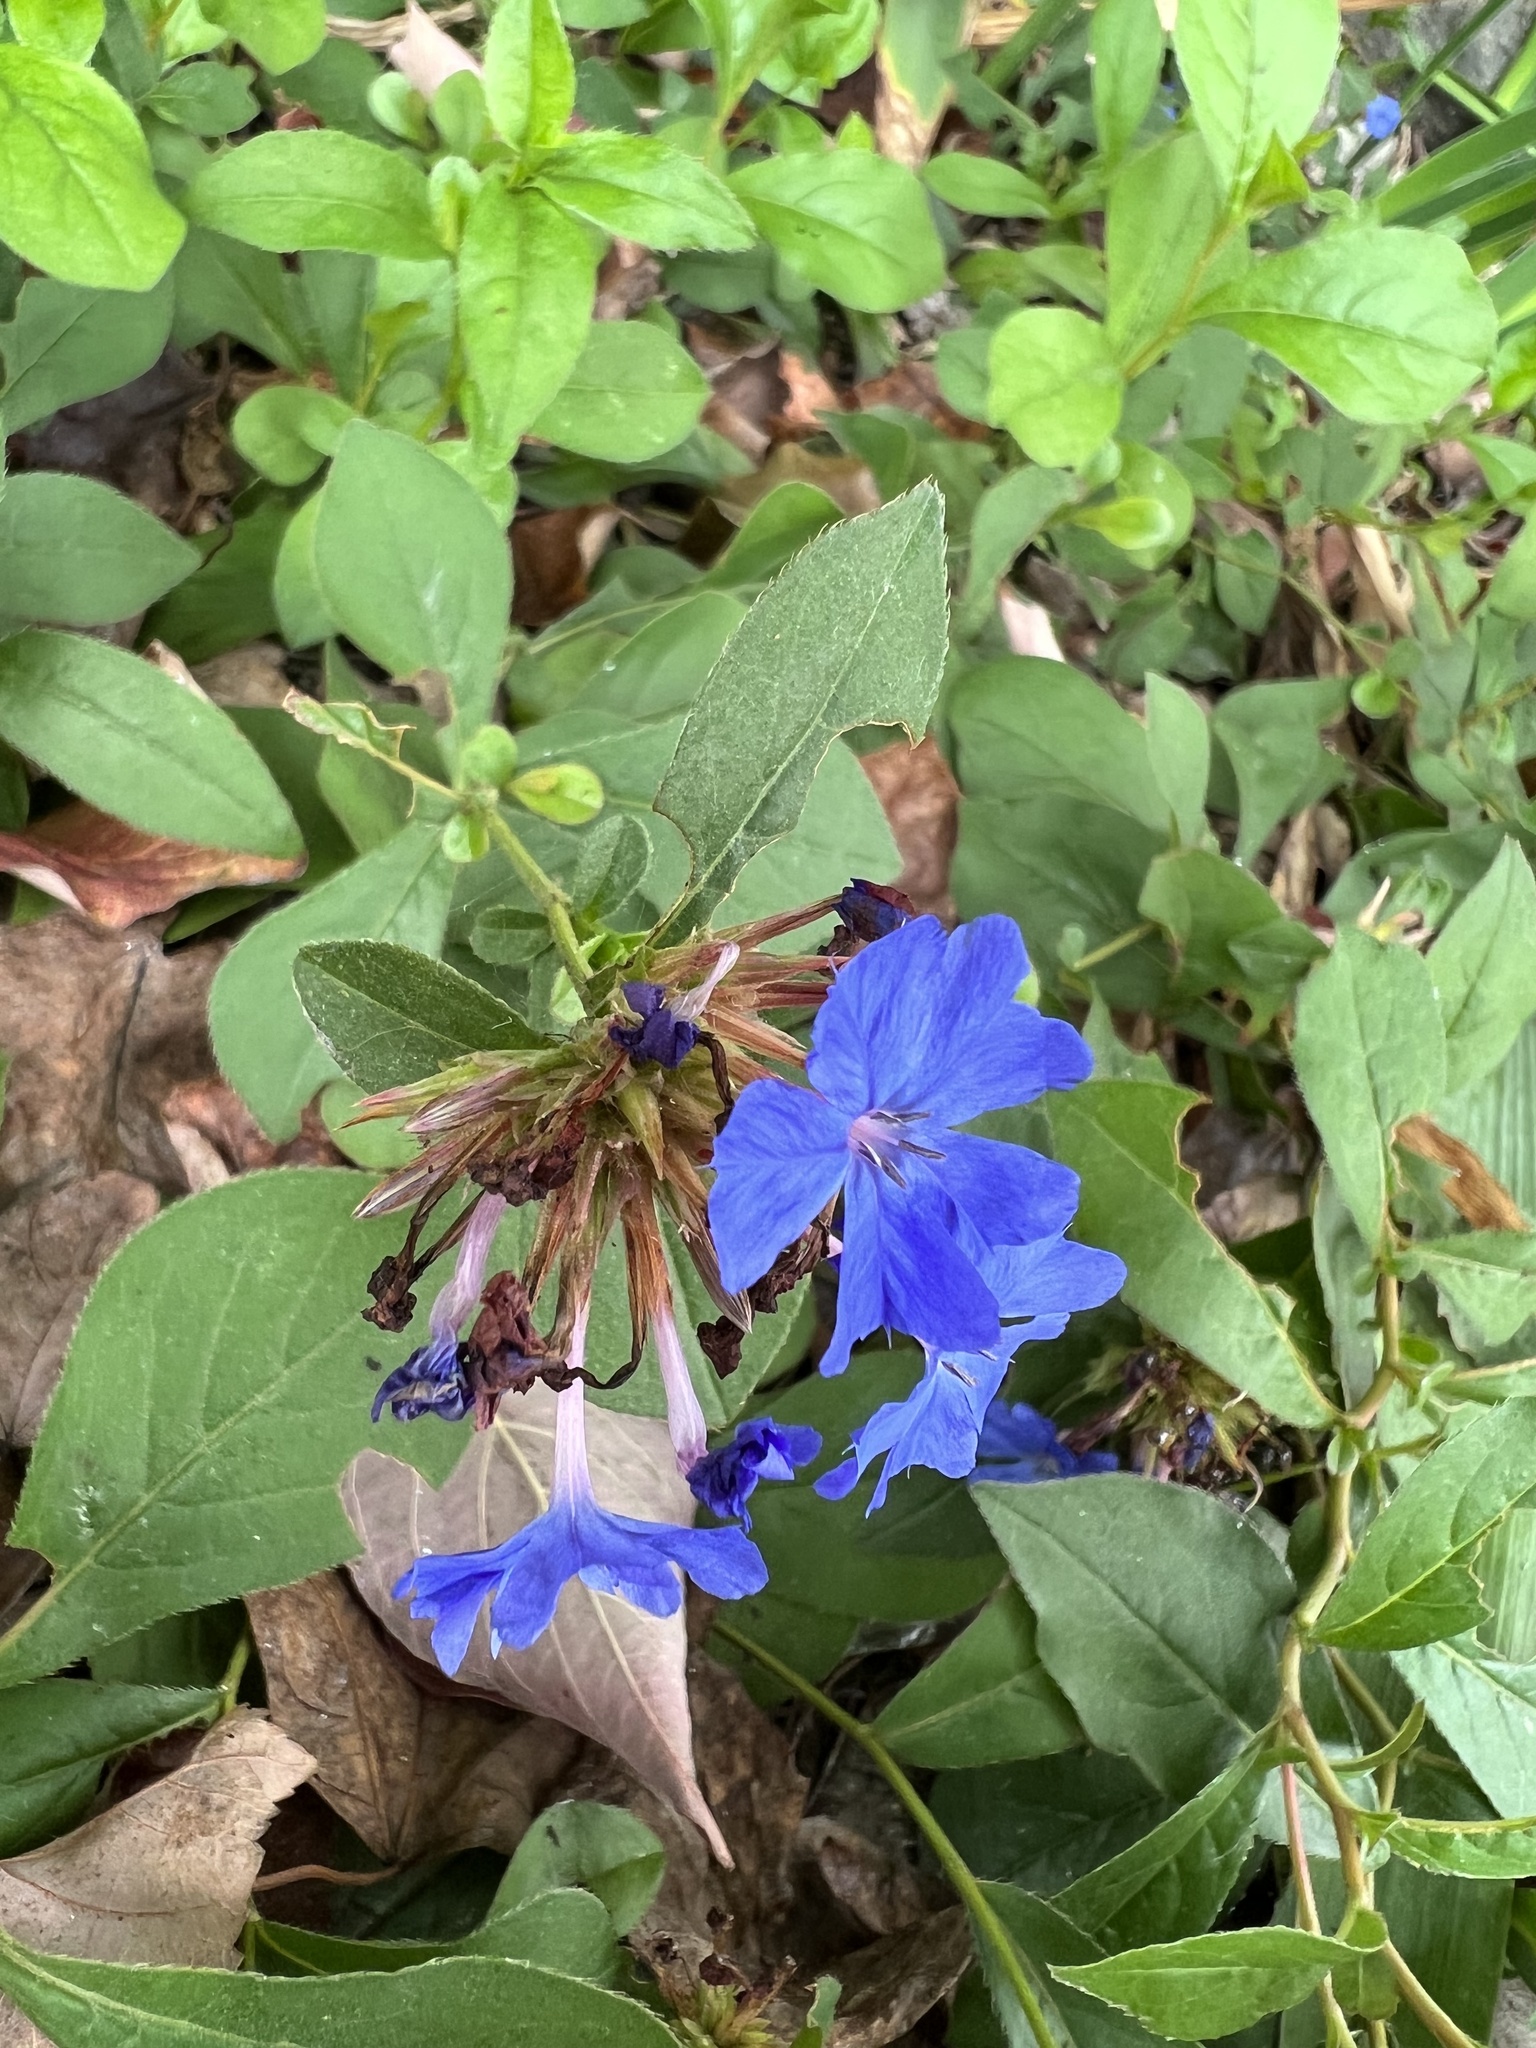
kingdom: Plantae
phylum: Tracheophyta
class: Magnoliopsida
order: Caryophyllales
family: Plumbaginaceae
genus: Ceratostigma
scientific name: Ceratostigma plumbaginoides
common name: Blue leadwood
